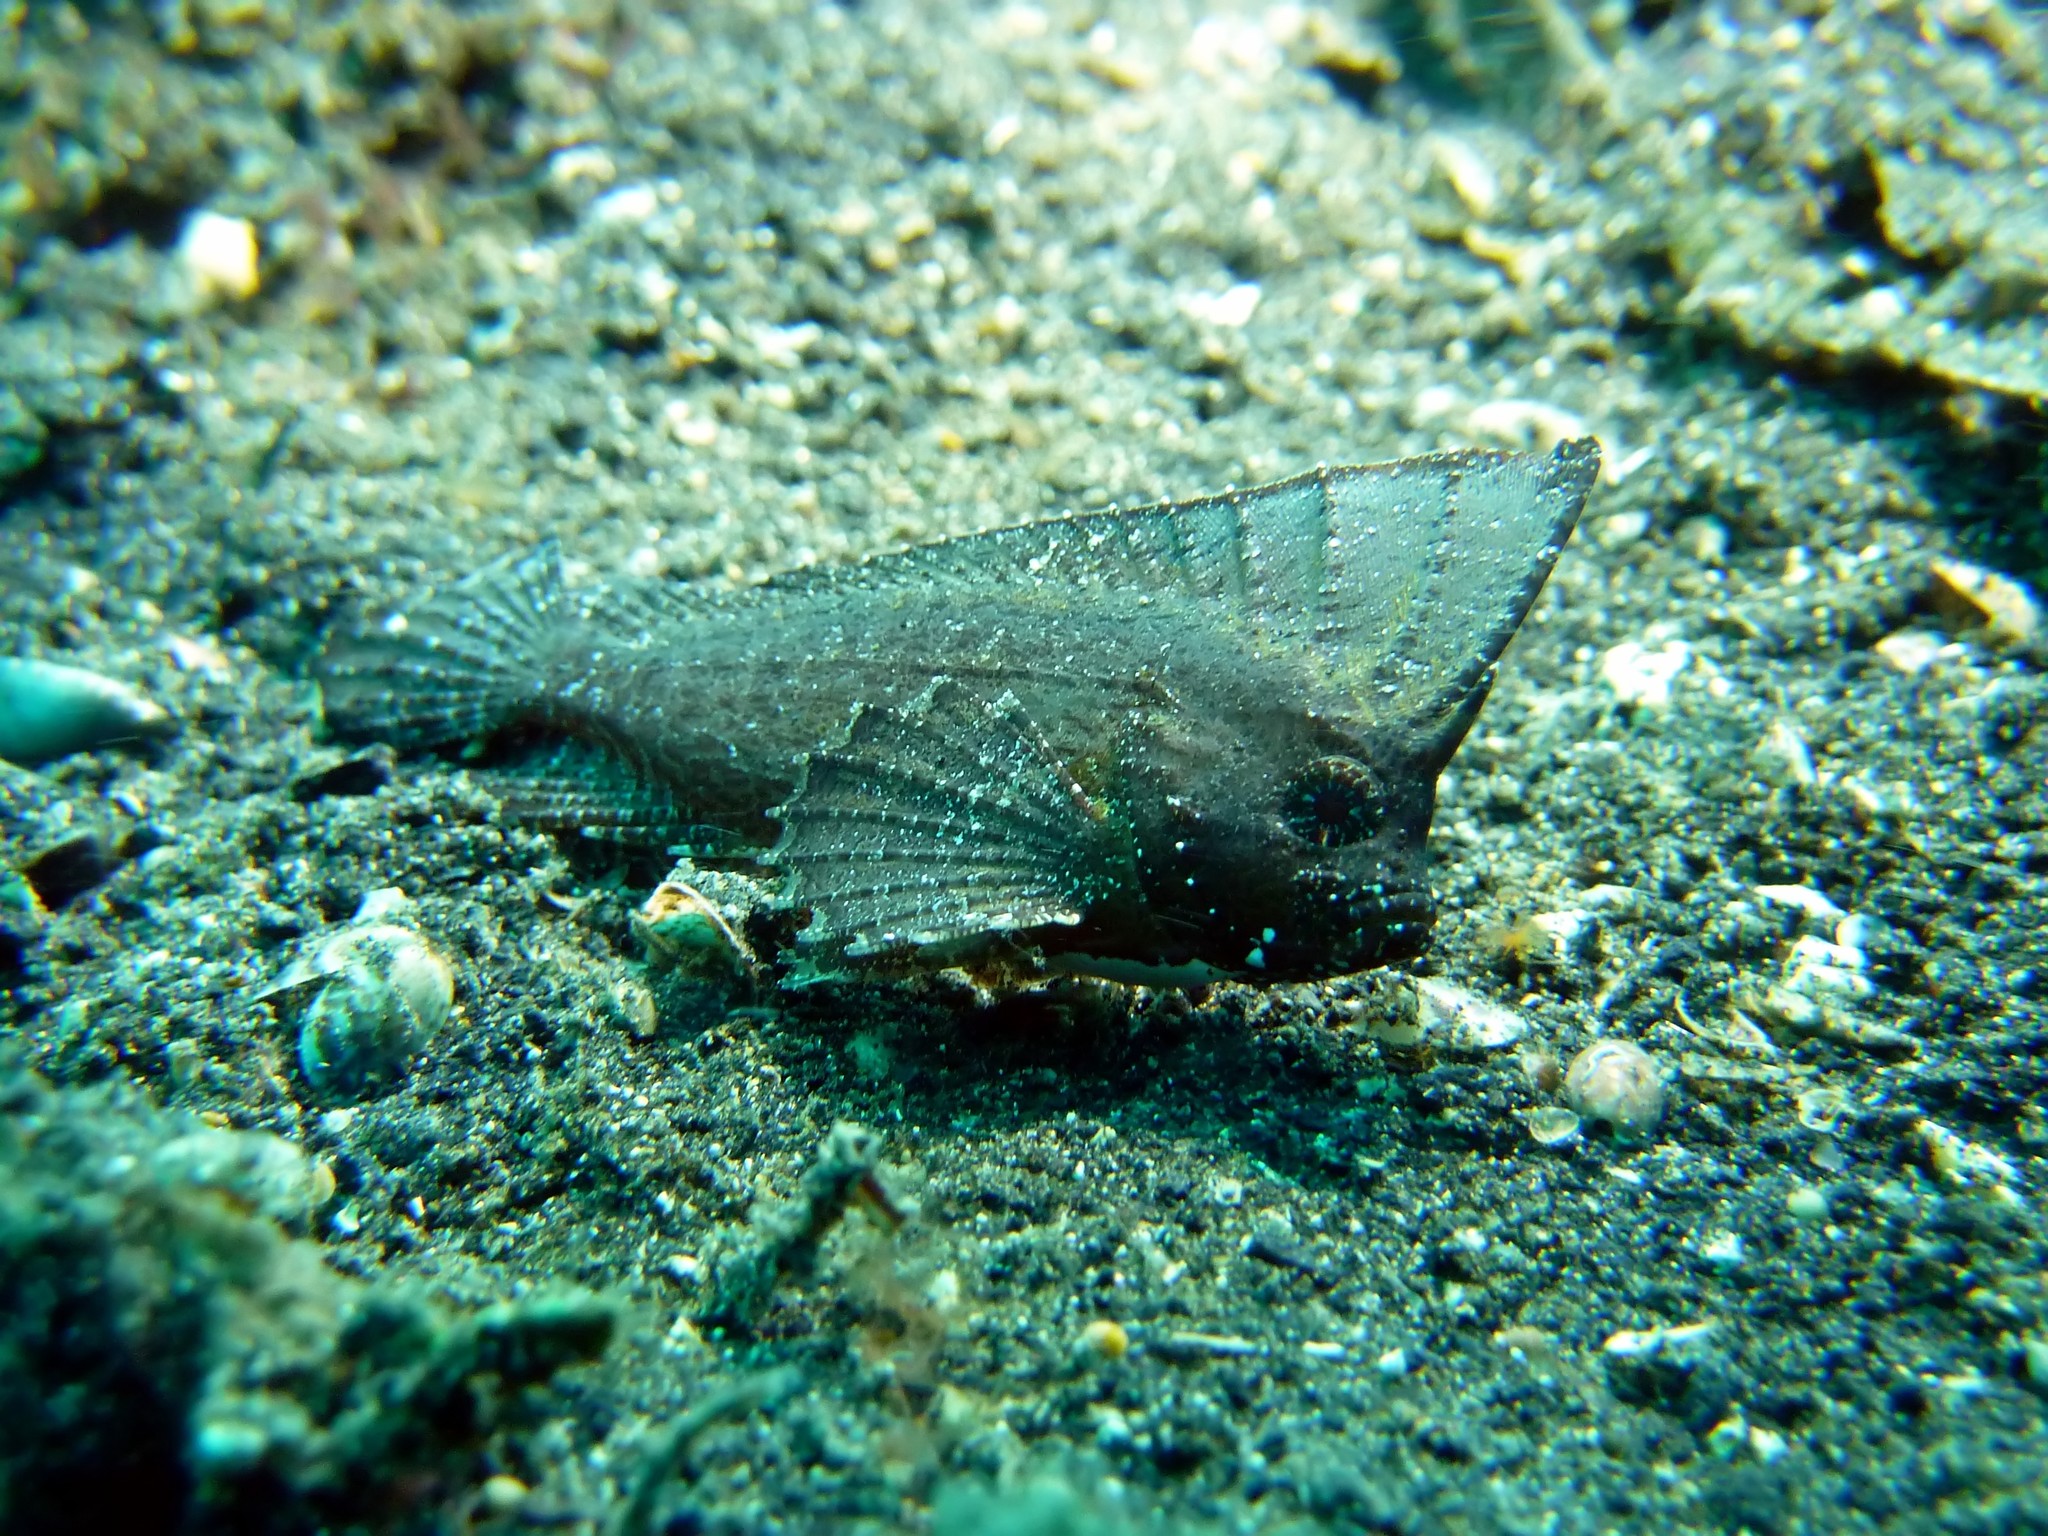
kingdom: Animalia
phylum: Chordata
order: Scorpaeniformes
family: Tetrarogidae
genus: Ablabys
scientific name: Ablabys macracanthus
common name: Spiny leaf-fish
